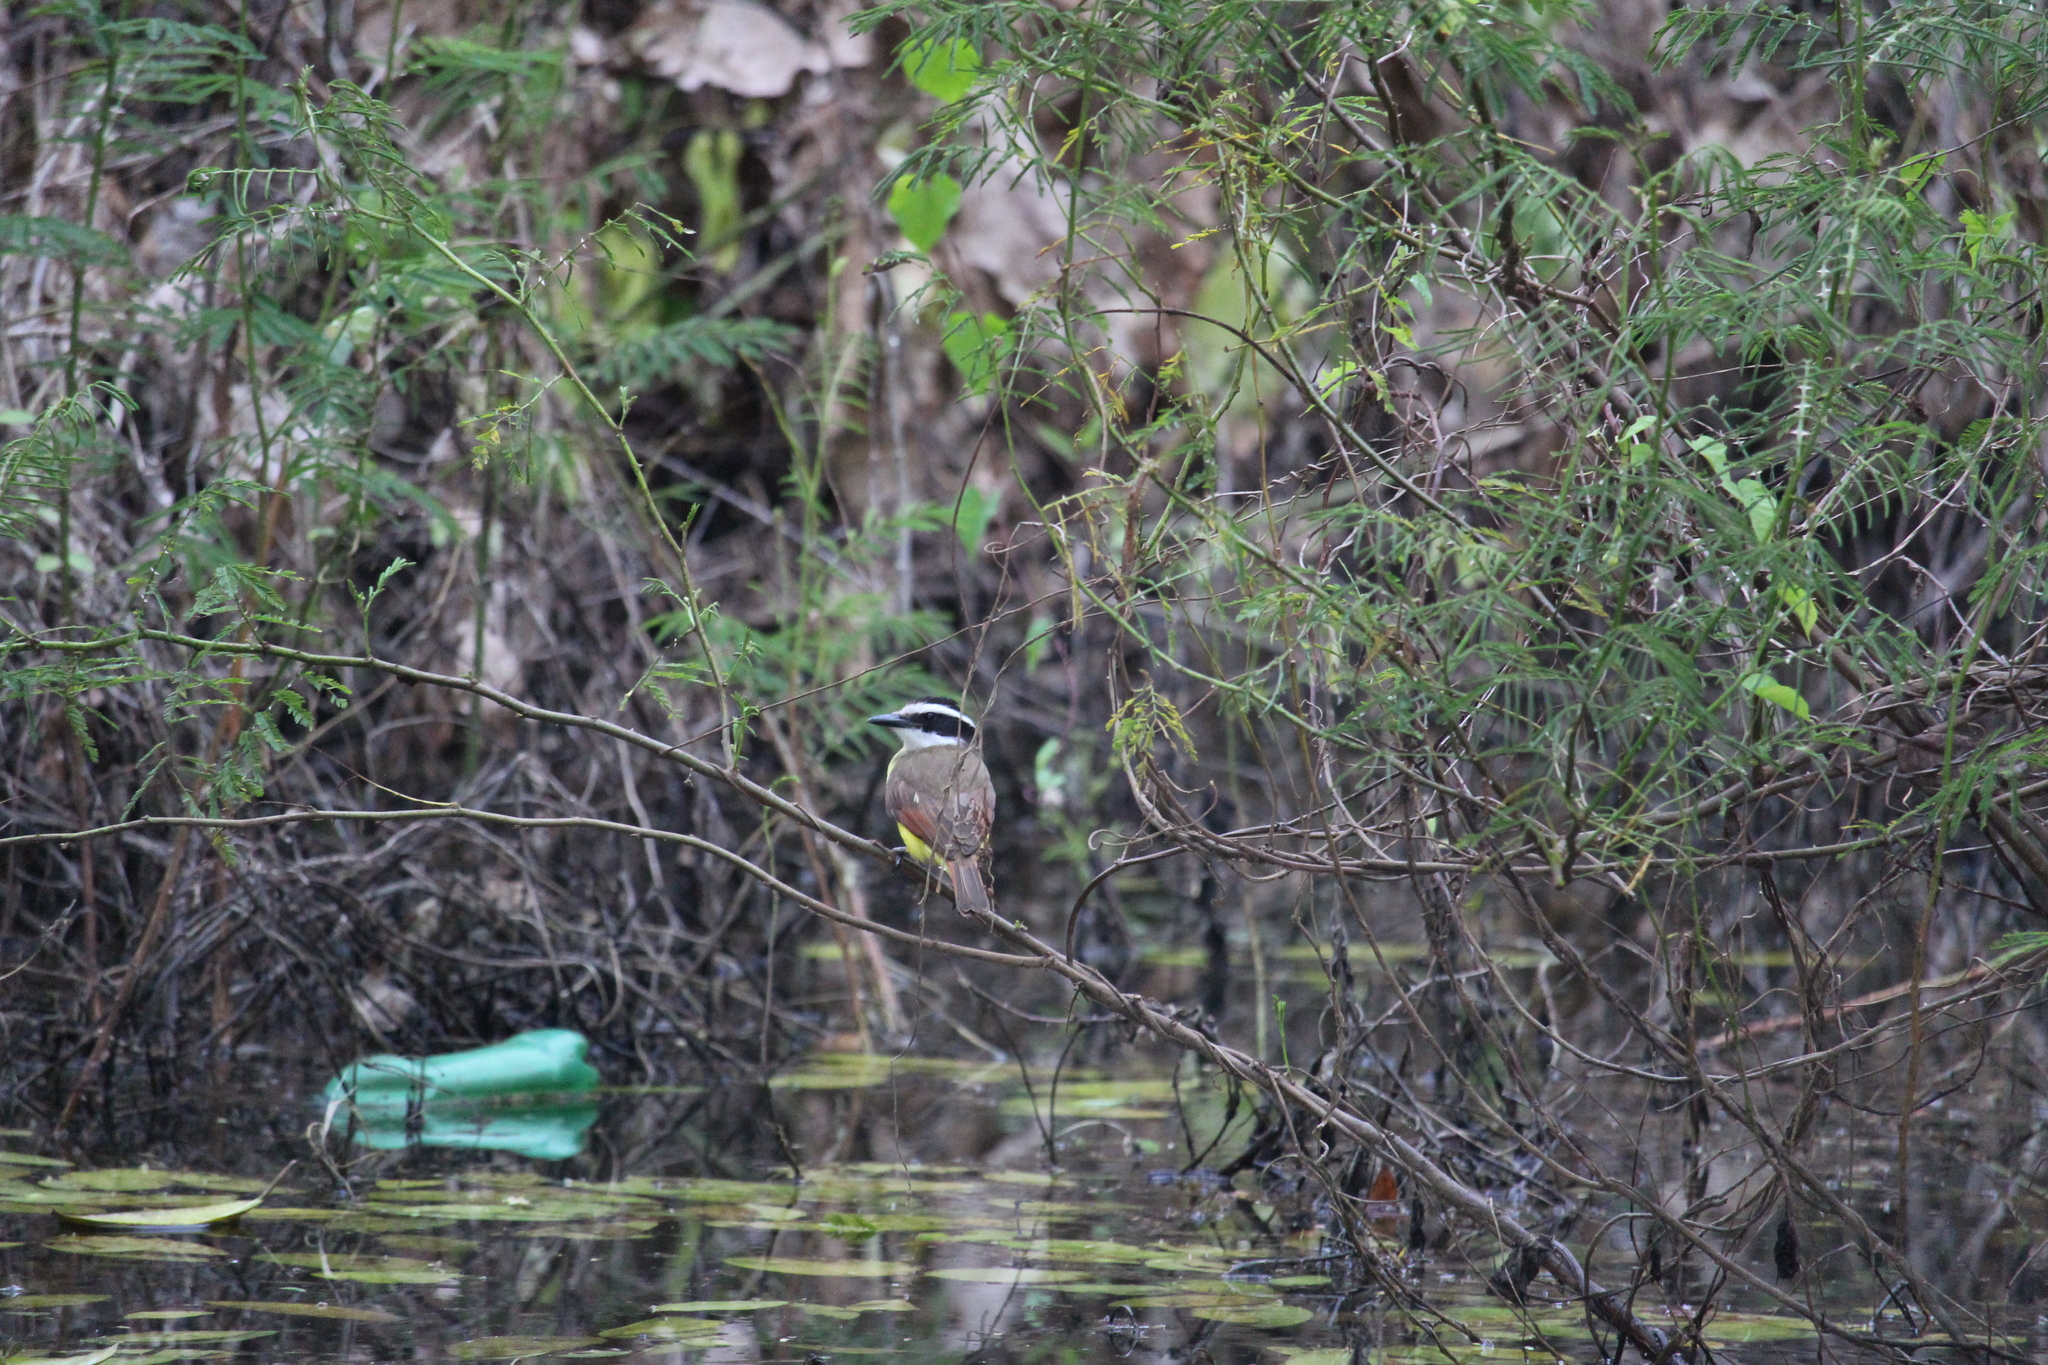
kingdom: Animalia
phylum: Chordata
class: Aves
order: Passeriformes
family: Tyrannidae
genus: Pitangus
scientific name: Pitangus sulphuratus
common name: Great kiskadee
